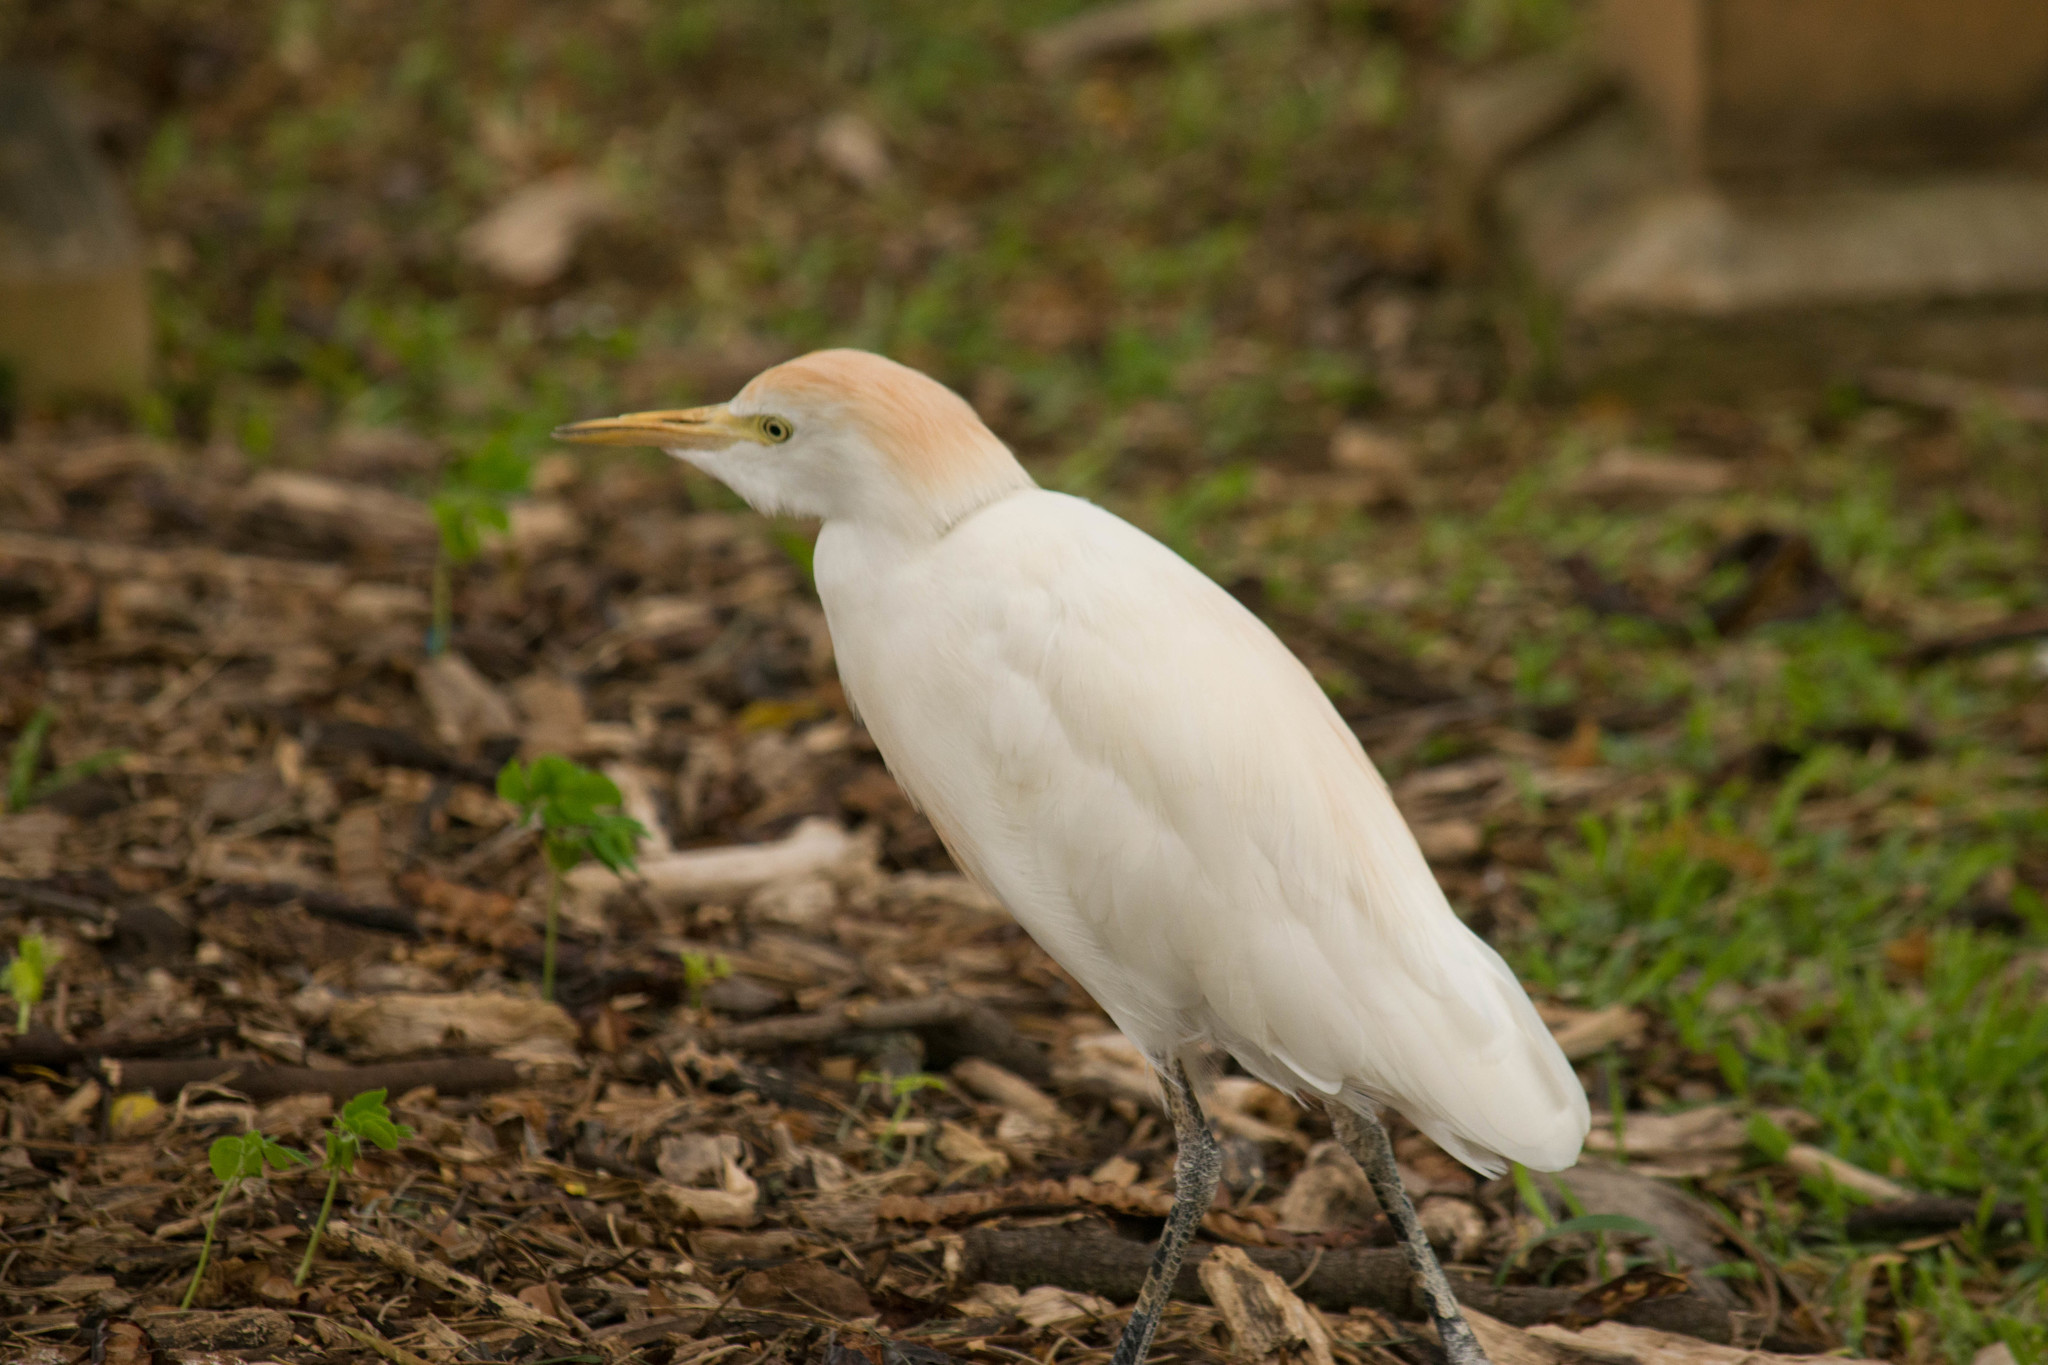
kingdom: Animalia
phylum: Chordata
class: Aves
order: Pelecaniformes
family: Ardeidae
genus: Bubulcus
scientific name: Bubulcus ibis
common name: Cattle egret
